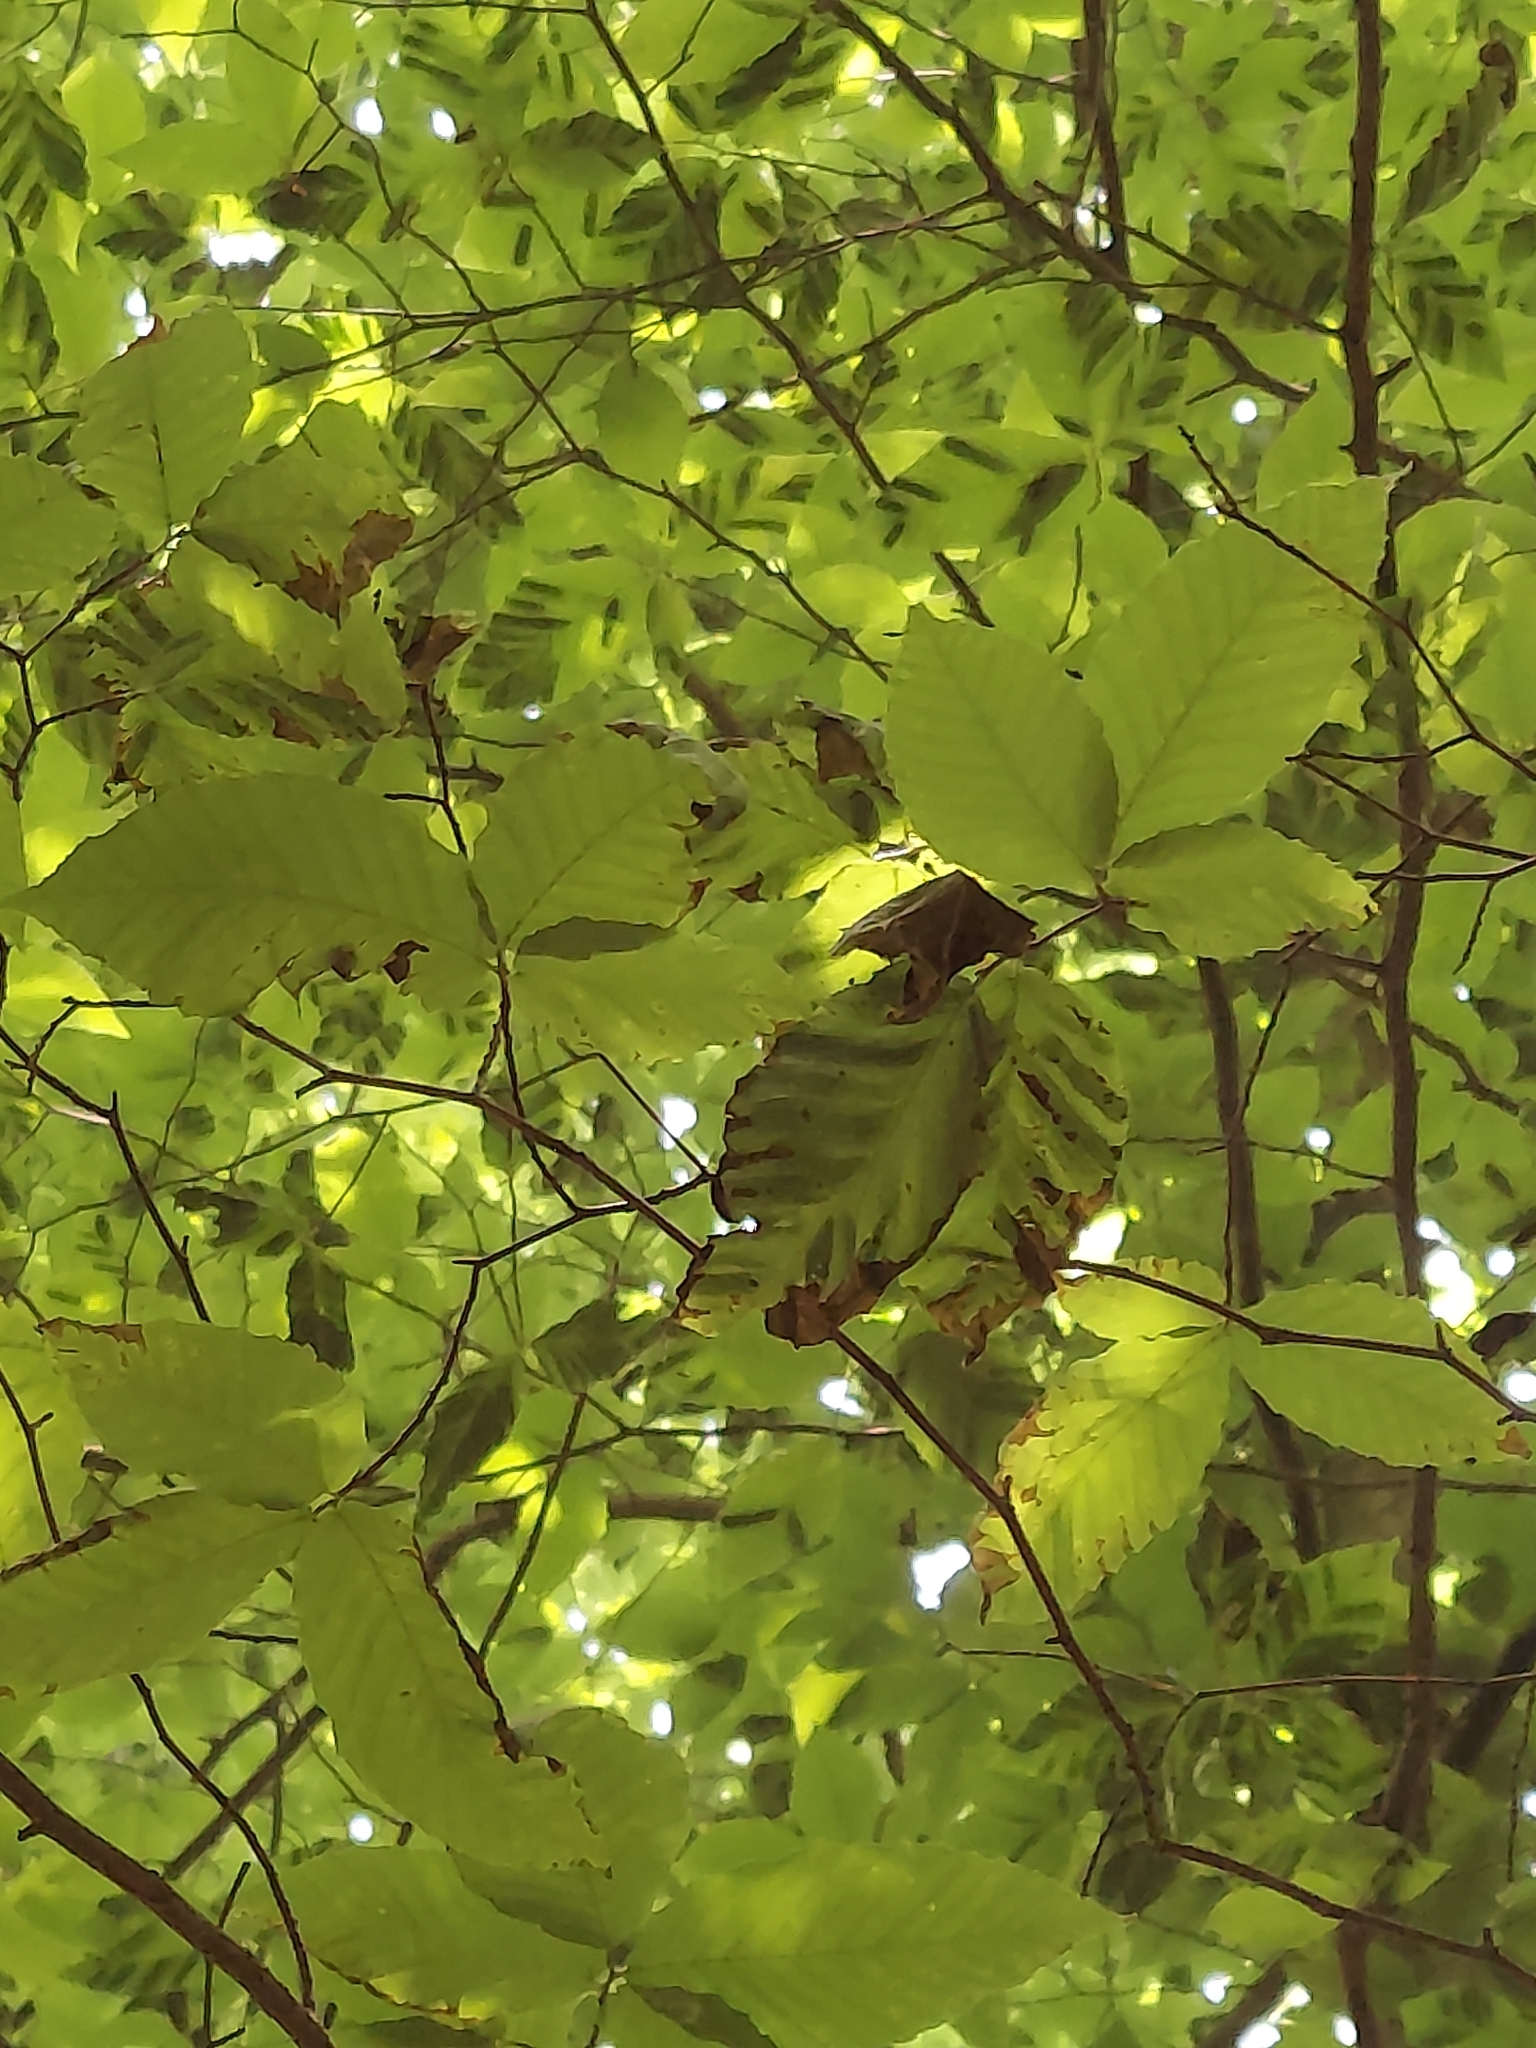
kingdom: Animalia
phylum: Nematoda
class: Chromadorea
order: Rhabditida
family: Anguinidae
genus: Litylenchus
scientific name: Litylenchus crenatae
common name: Beech leaf disease
